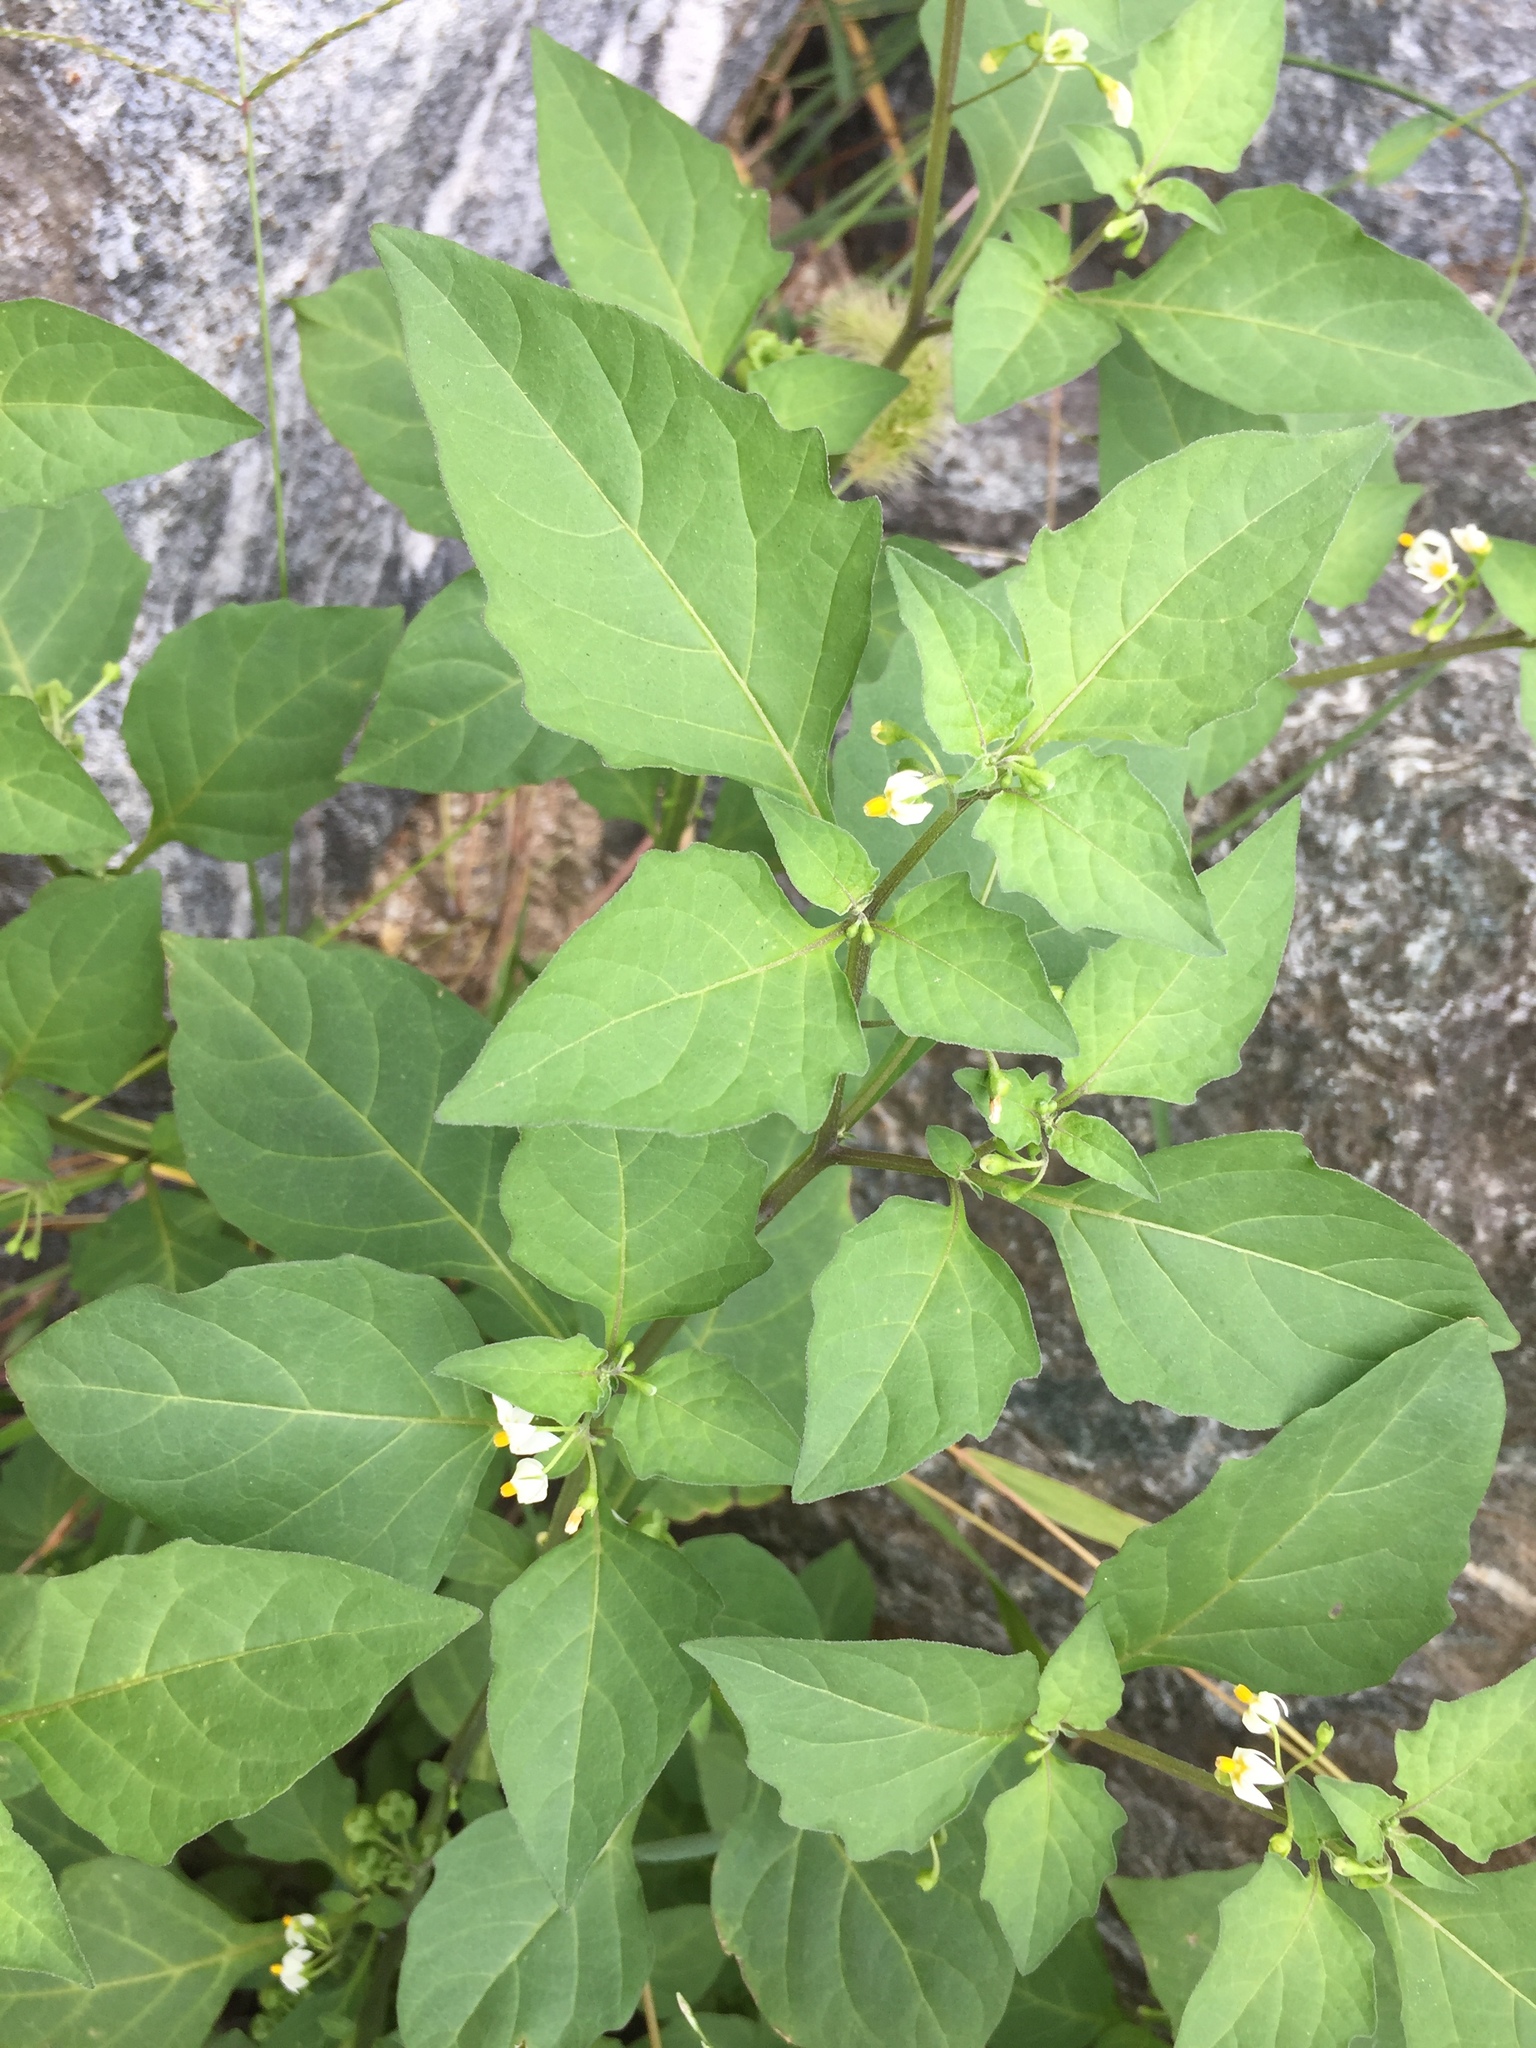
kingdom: Plantae
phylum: Tracheophyta
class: Magnoliopsida
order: Solanales
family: Solanaceae
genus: Solanum
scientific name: Solanum nigrum
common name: Black nightshade
